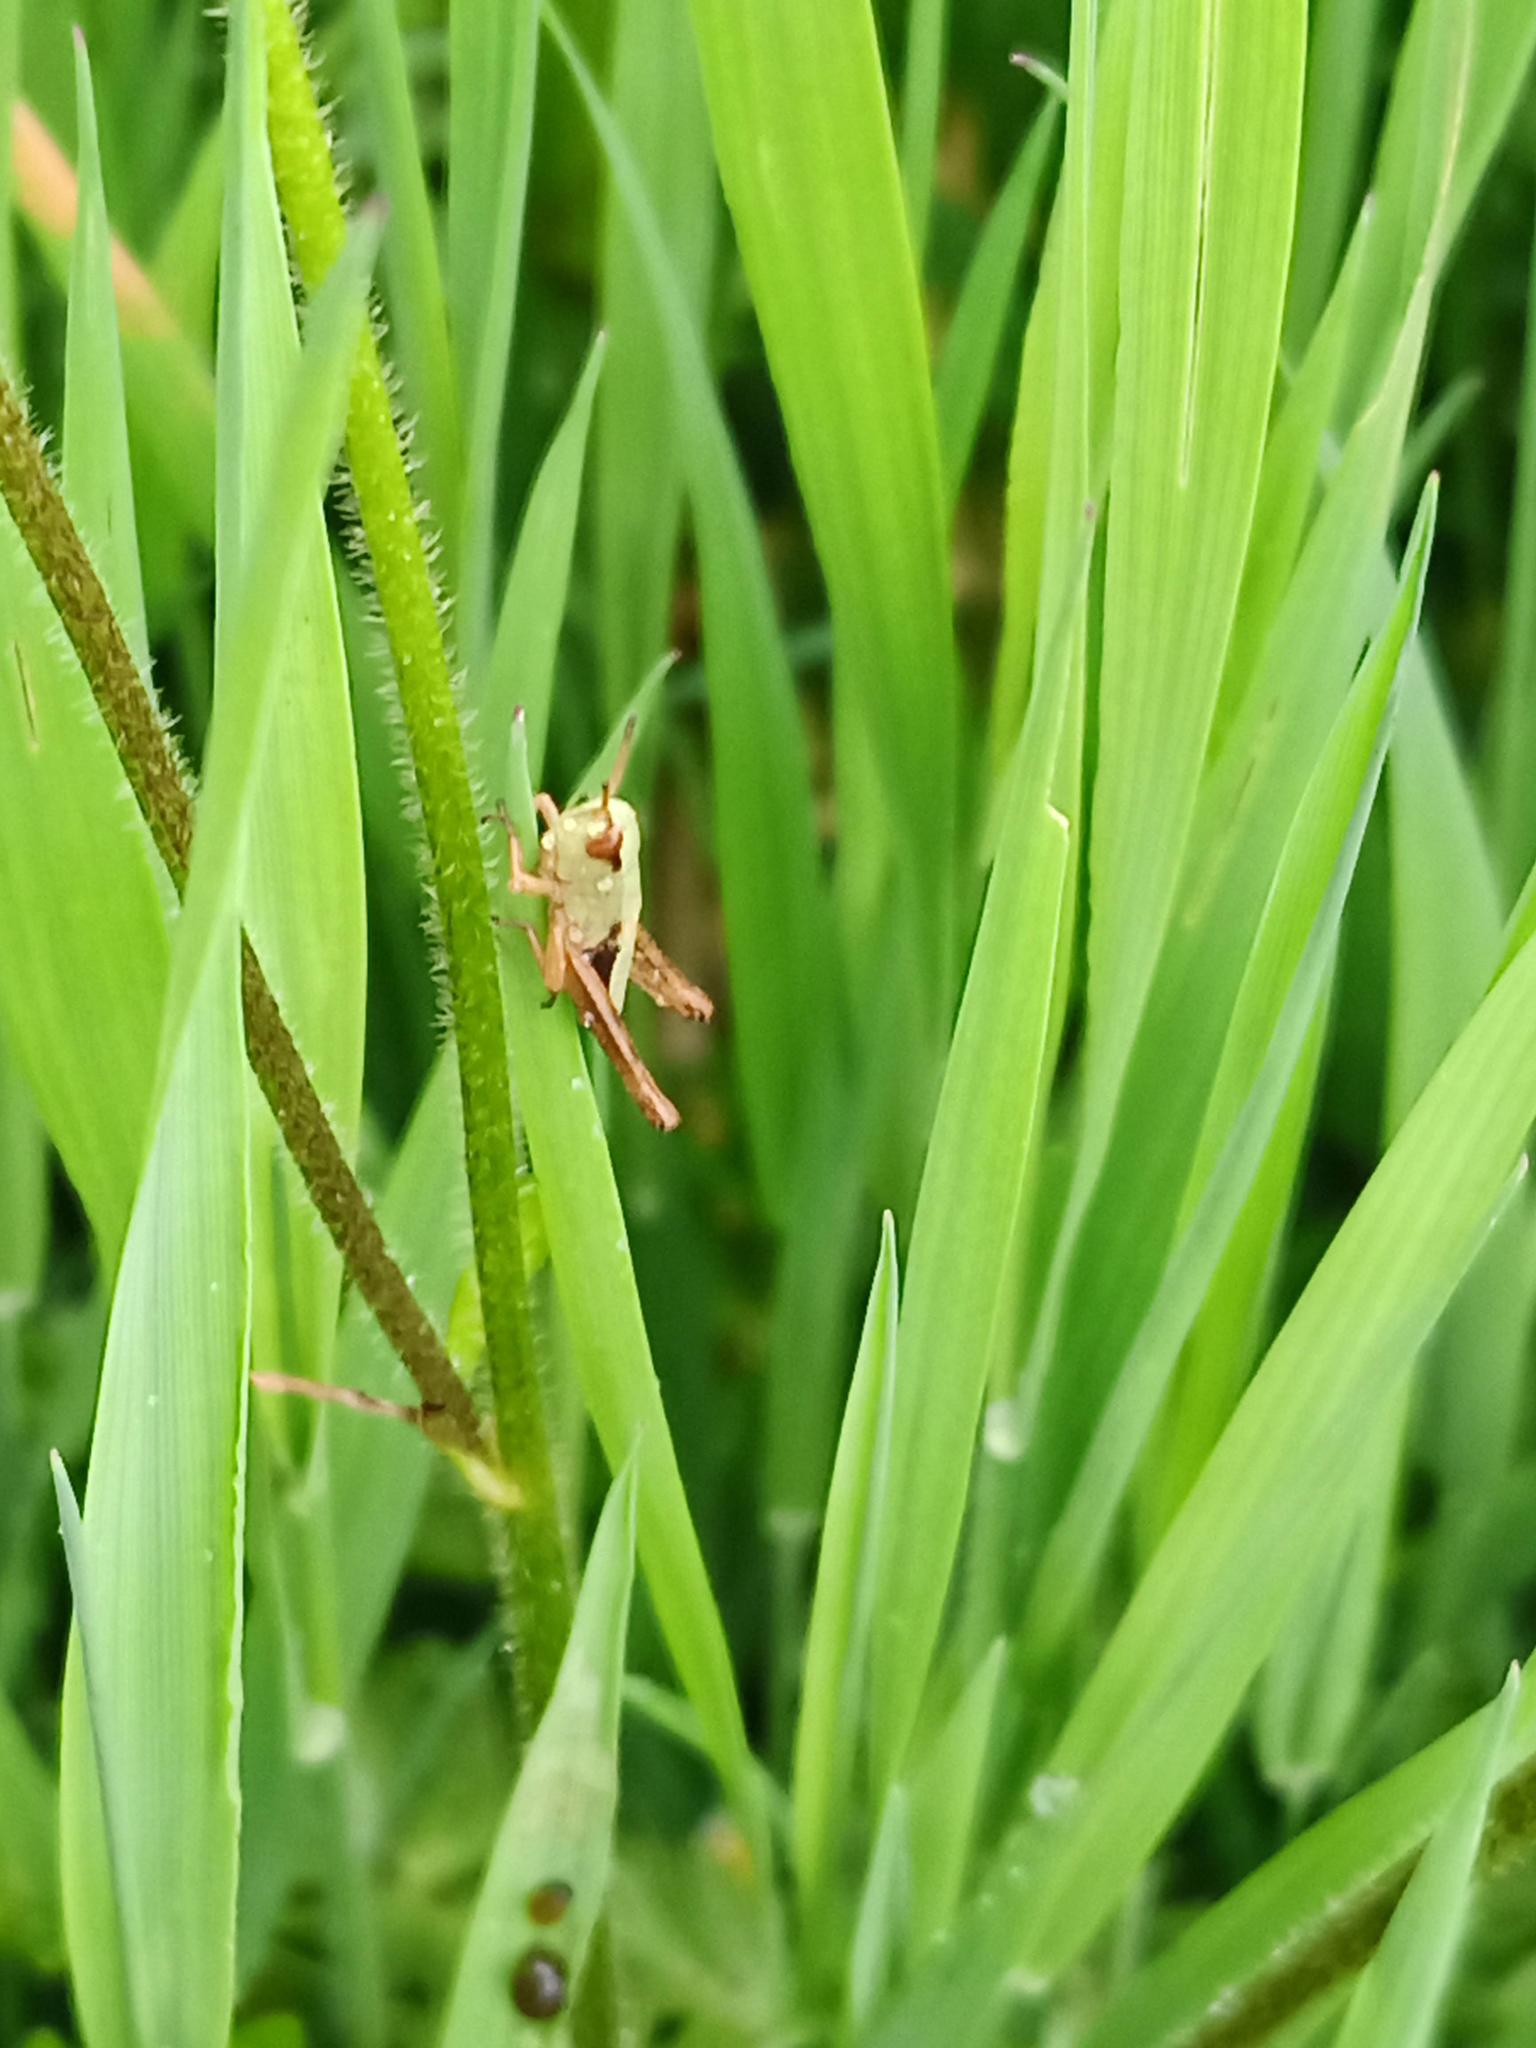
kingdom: Animalia
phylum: Arthropoda
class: Insecta
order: Orthoptera
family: Acrididae
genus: Pseudochorthippus
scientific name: Pseudochorthippus parallelus
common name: Meadow grasshopper
